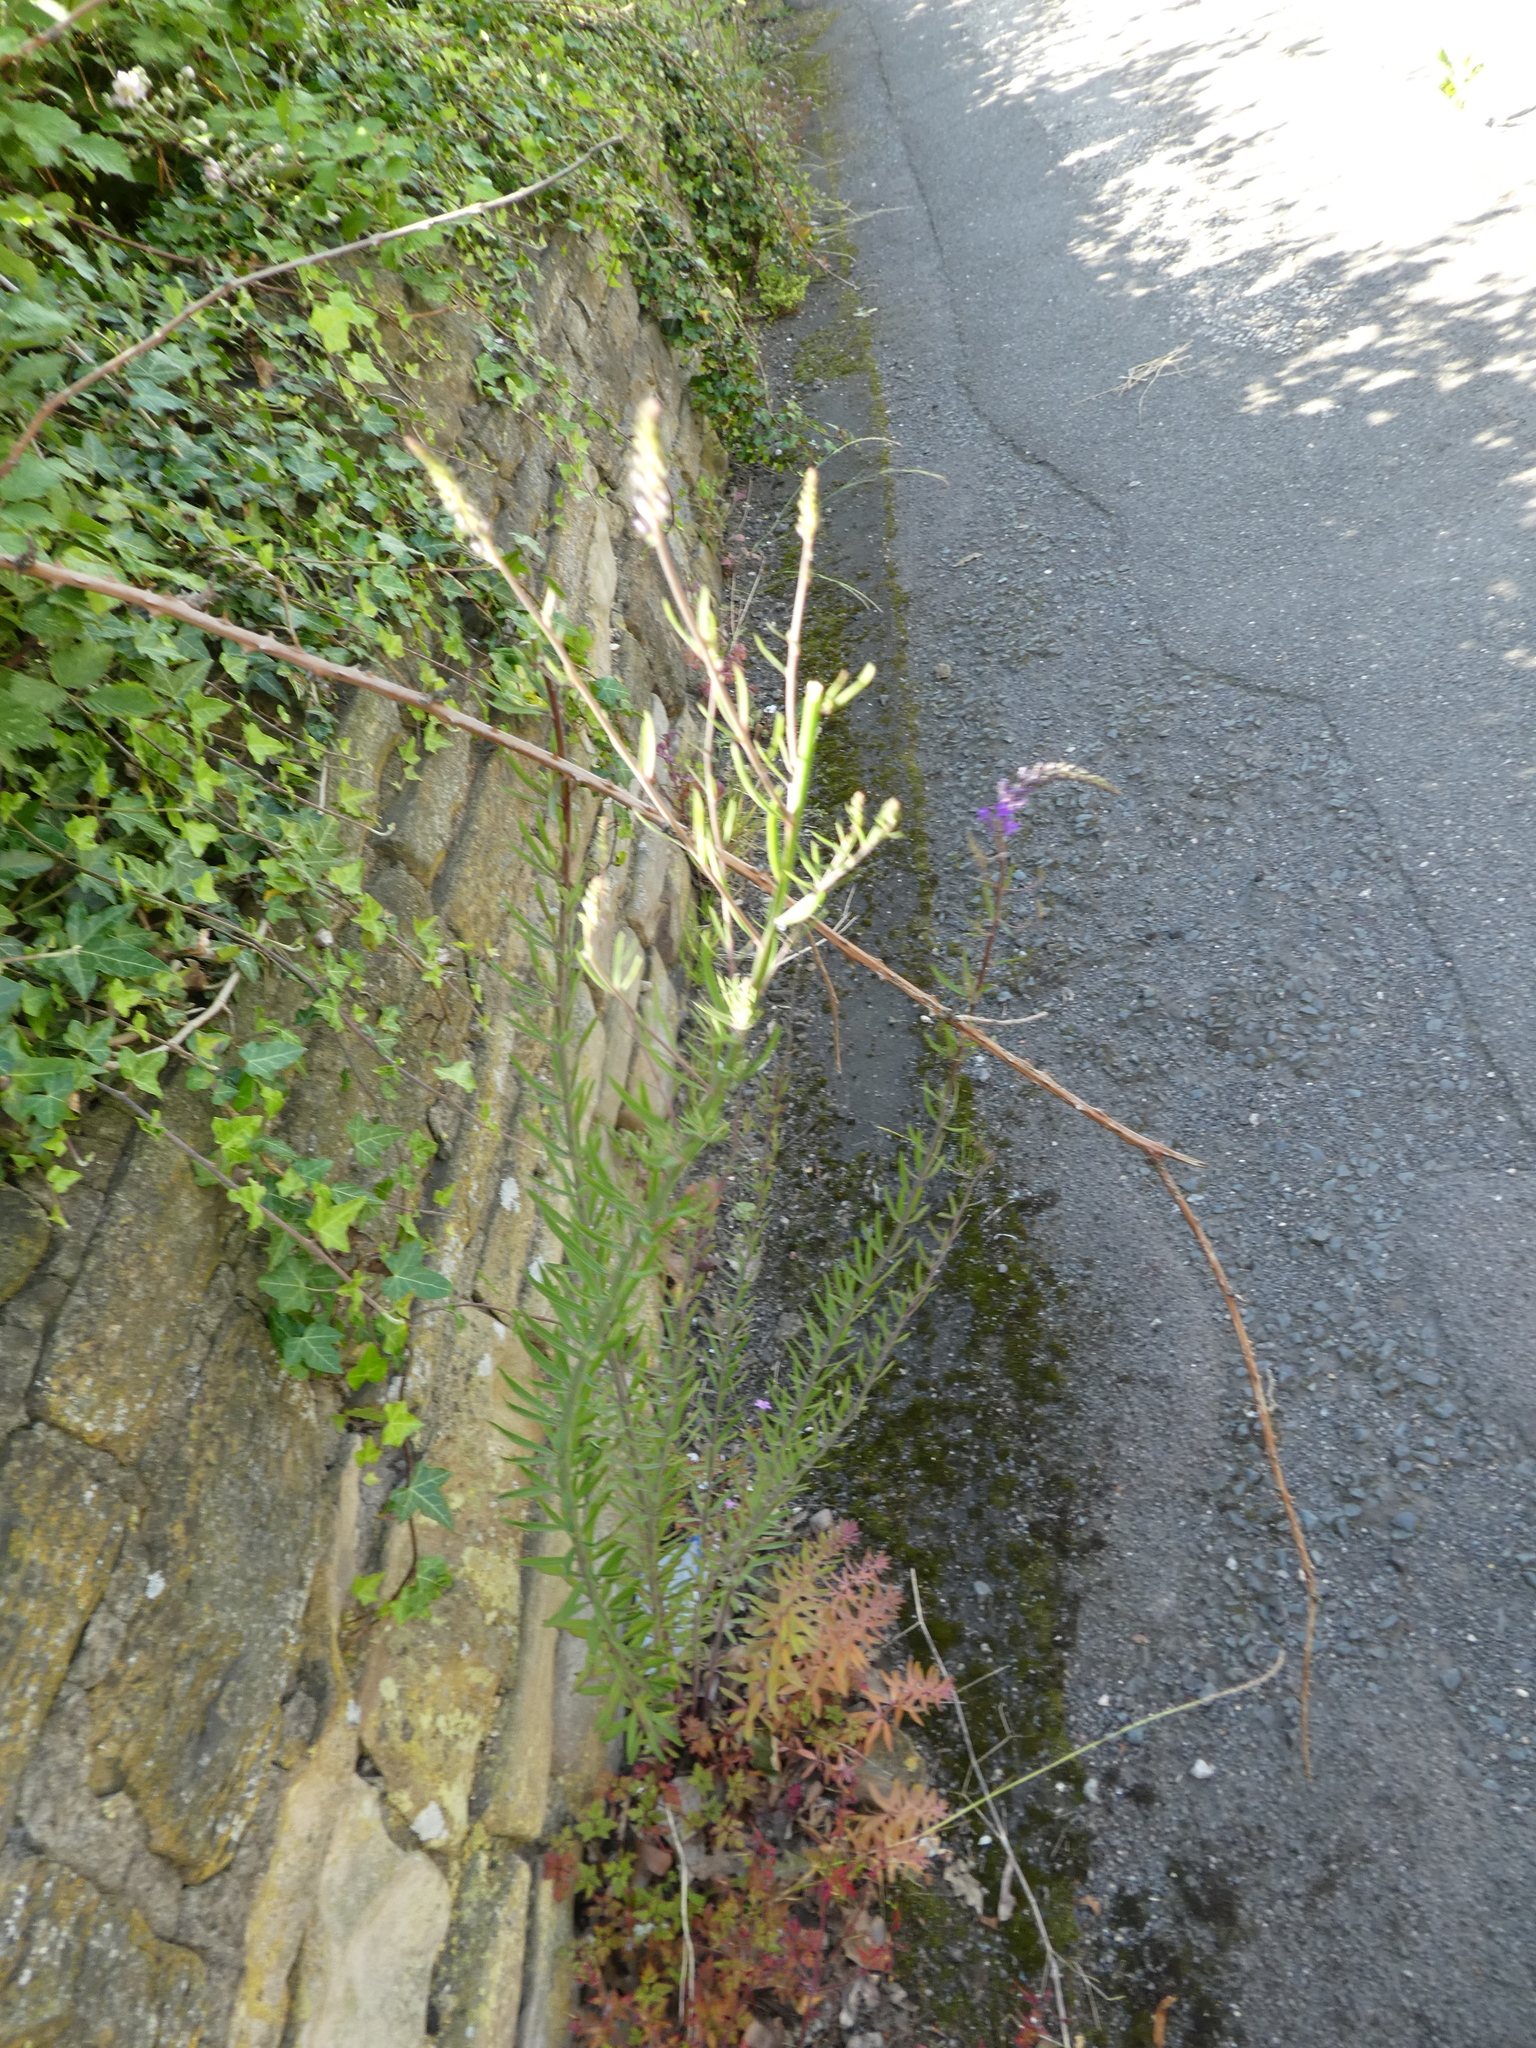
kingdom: Plantae
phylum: Tracheophyta
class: Magnoliopsida
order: Lamiales
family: Plantaginaceae
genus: Linaria
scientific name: Linaria purpurea
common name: Purple toadflax
